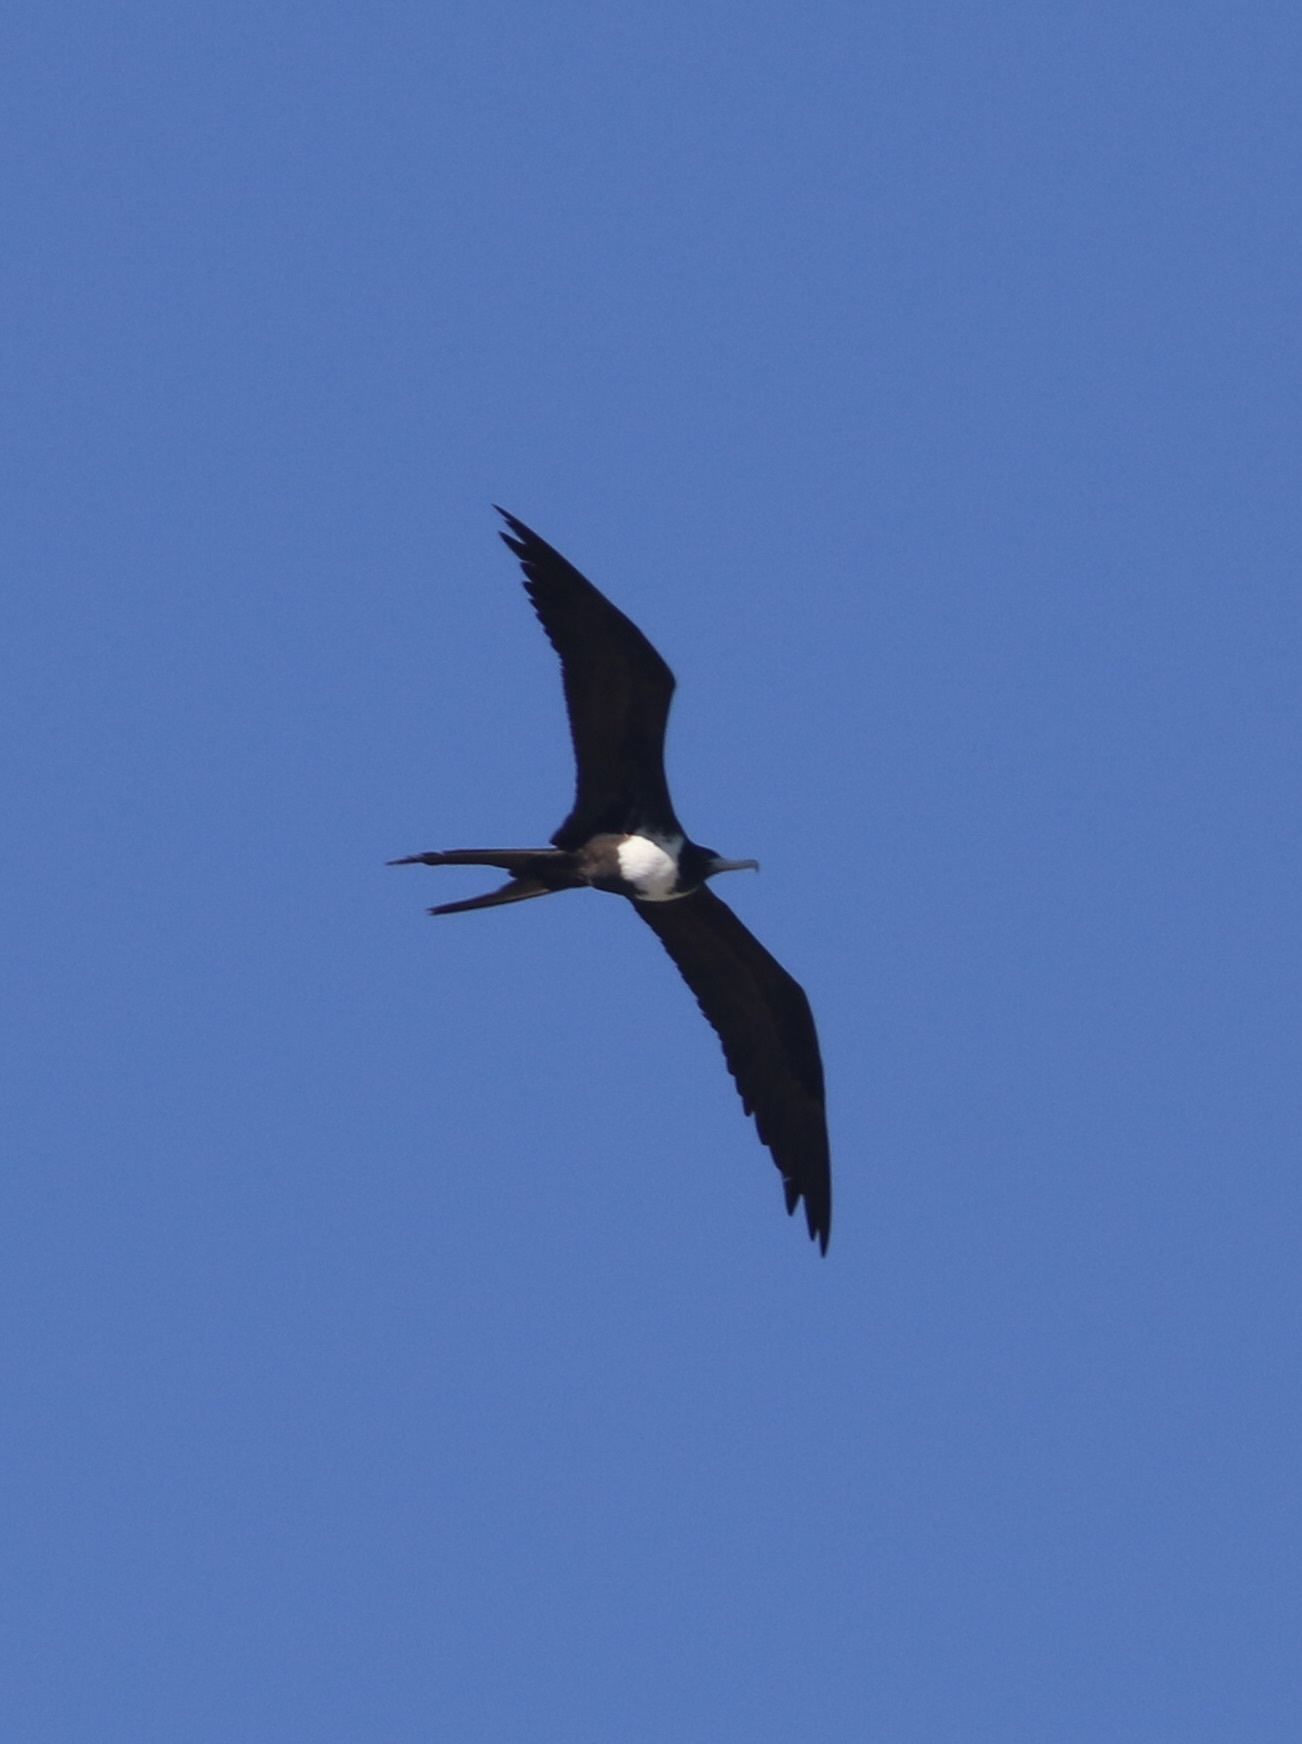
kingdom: Animalia
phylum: Chordata
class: Aves
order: Suliformes
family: Fregatidae
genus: Fregata
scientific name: Fregata magnificens
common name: Magnificent frigatebird
